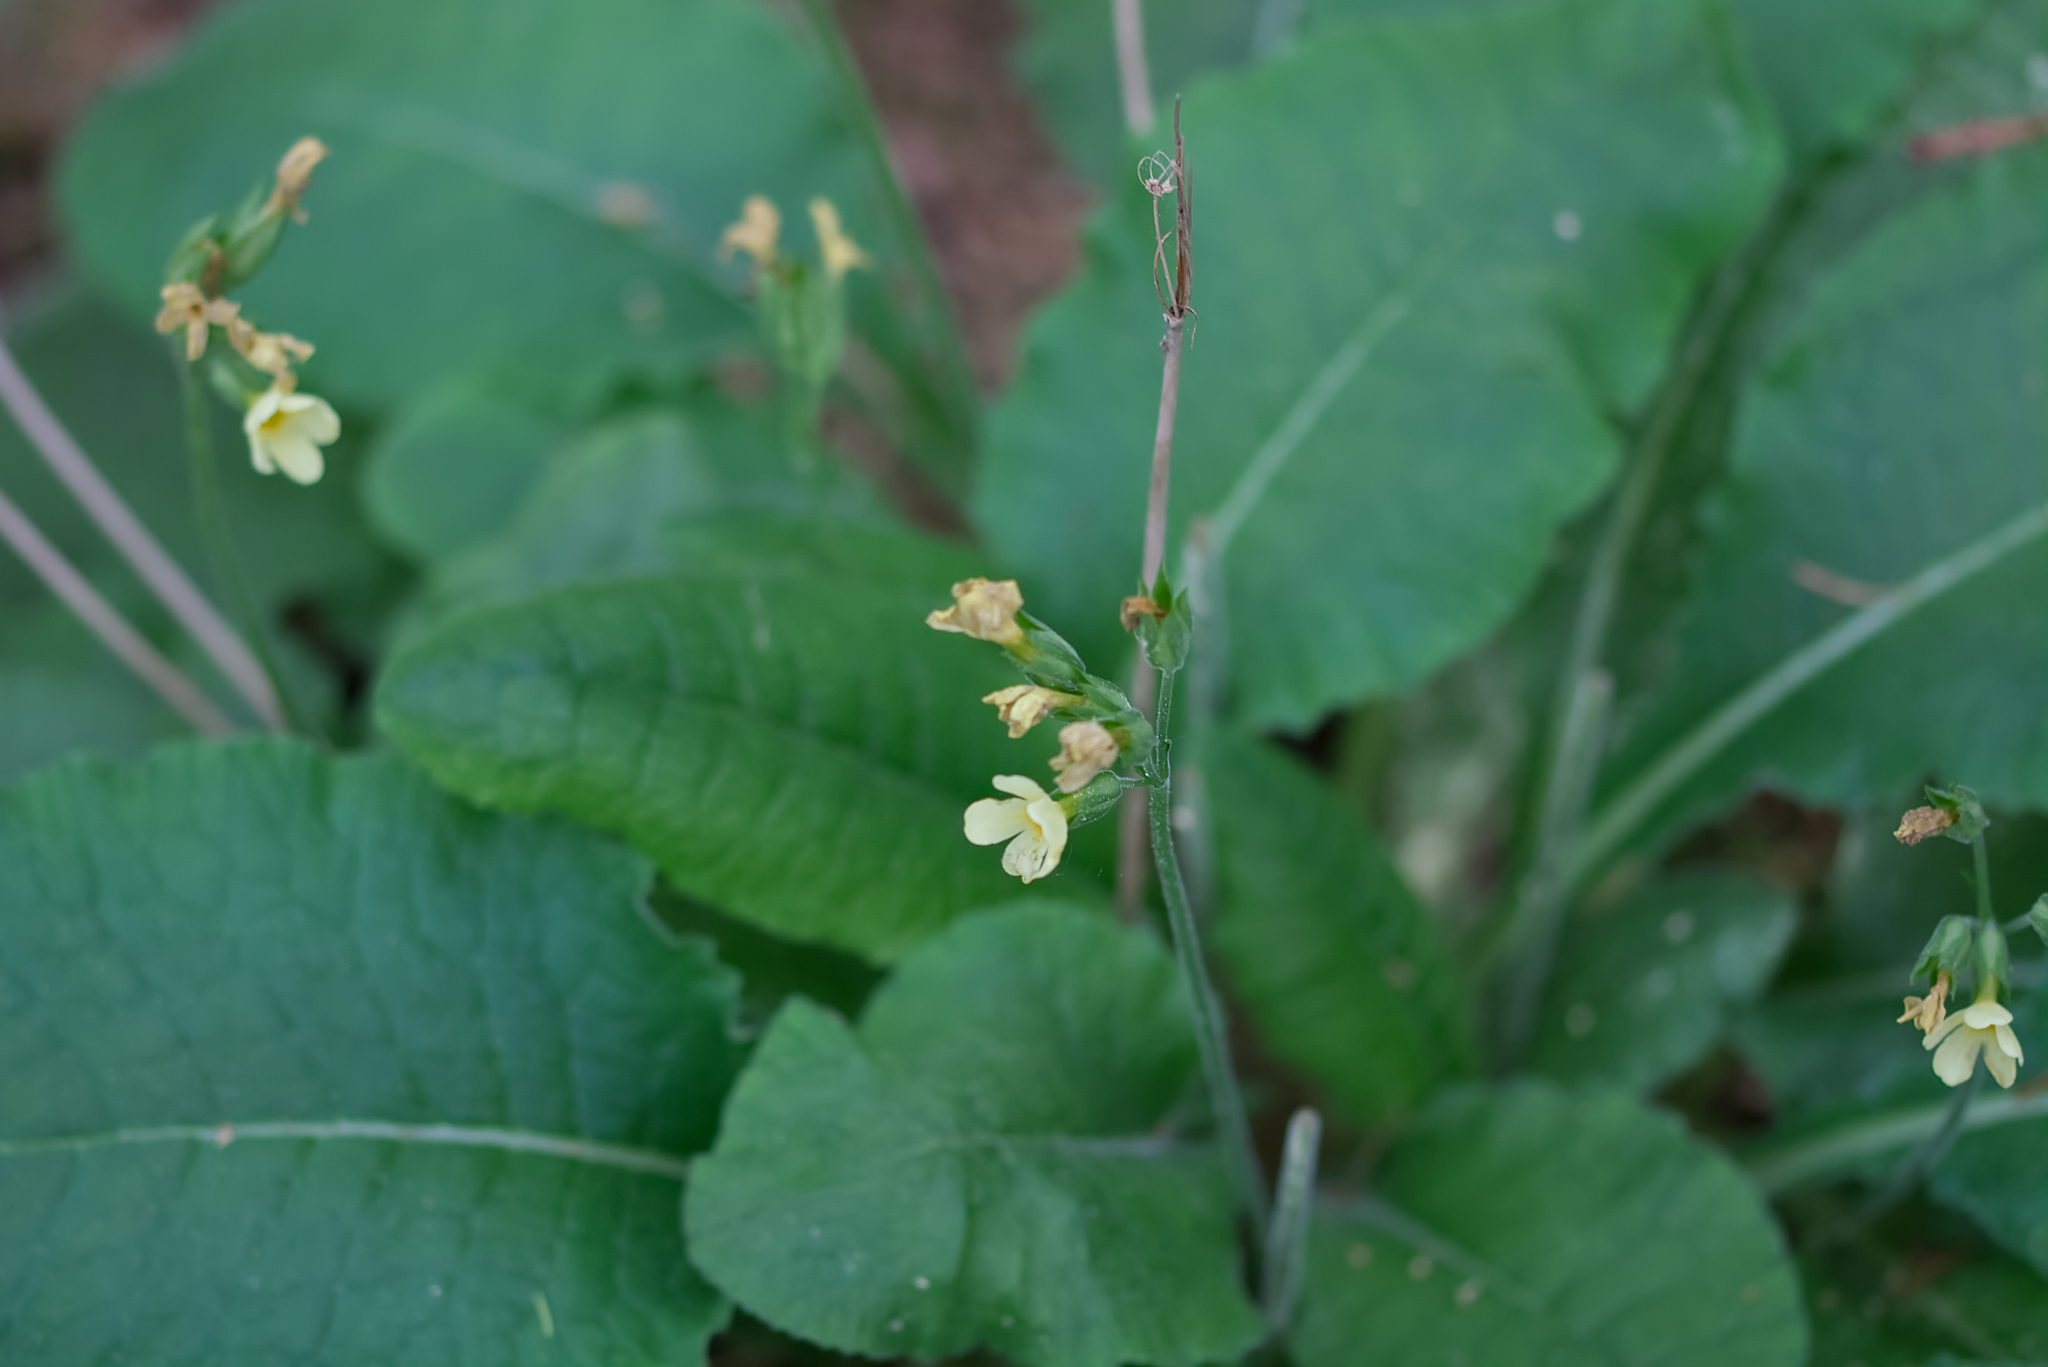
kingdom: Plantae
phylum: Tracheophyta
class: Magnoliopsida
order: Ericales
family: Primulaceae
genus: Primula
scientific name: Primula elatior
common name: Oxlip
